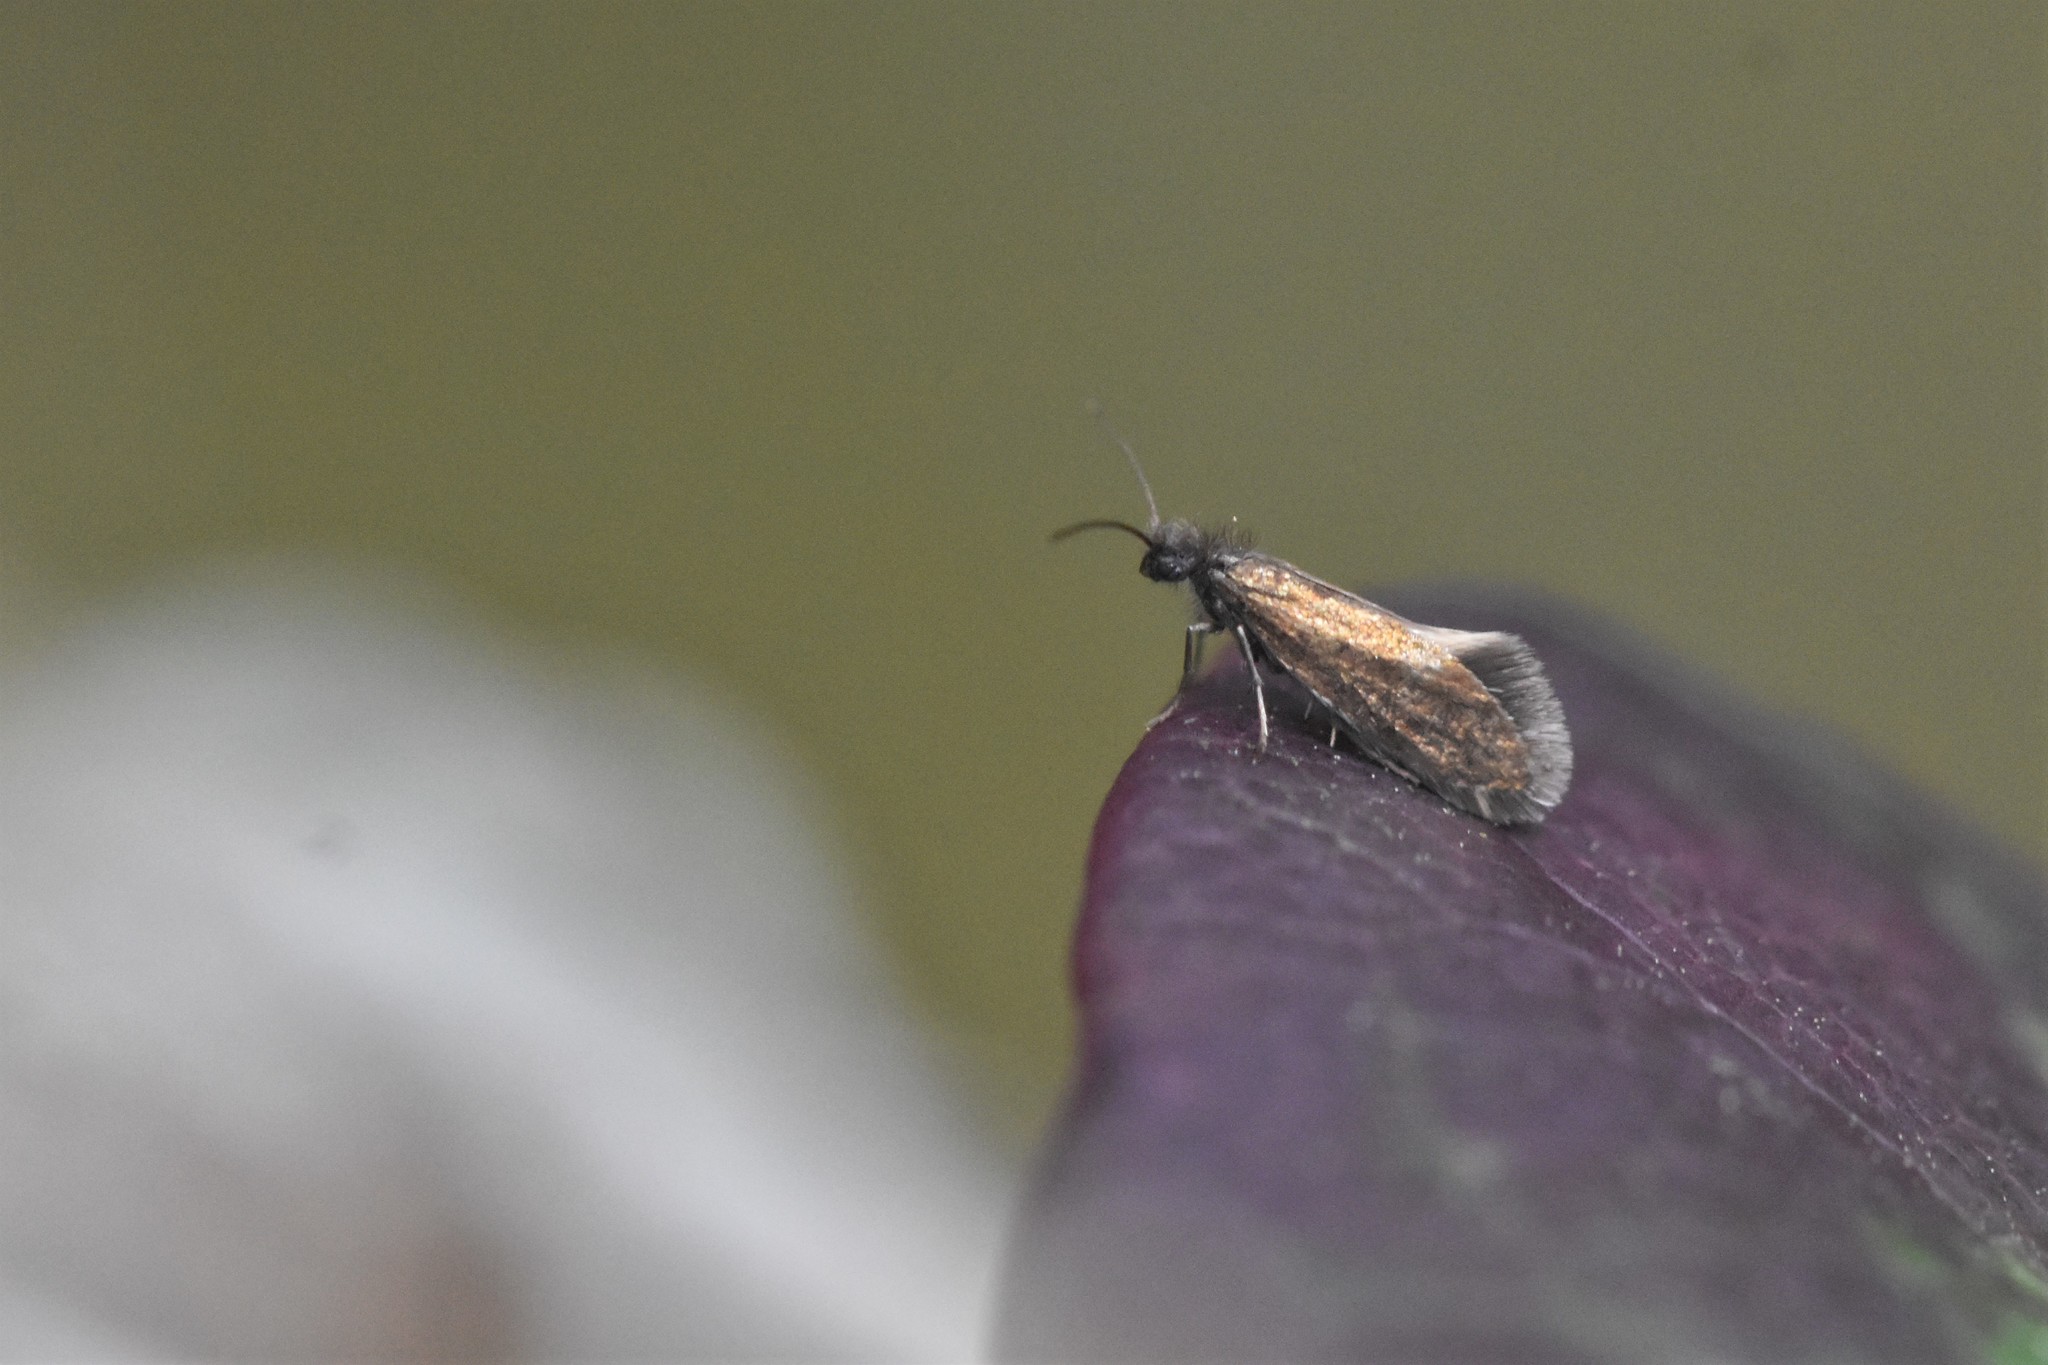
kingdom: Animalia
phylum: Arthropoda
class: Insecta
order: Lepidoptera
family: Eriocraniidae
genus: Eriocrania
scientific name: Eriocrania semipurpurella
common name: Early purple
